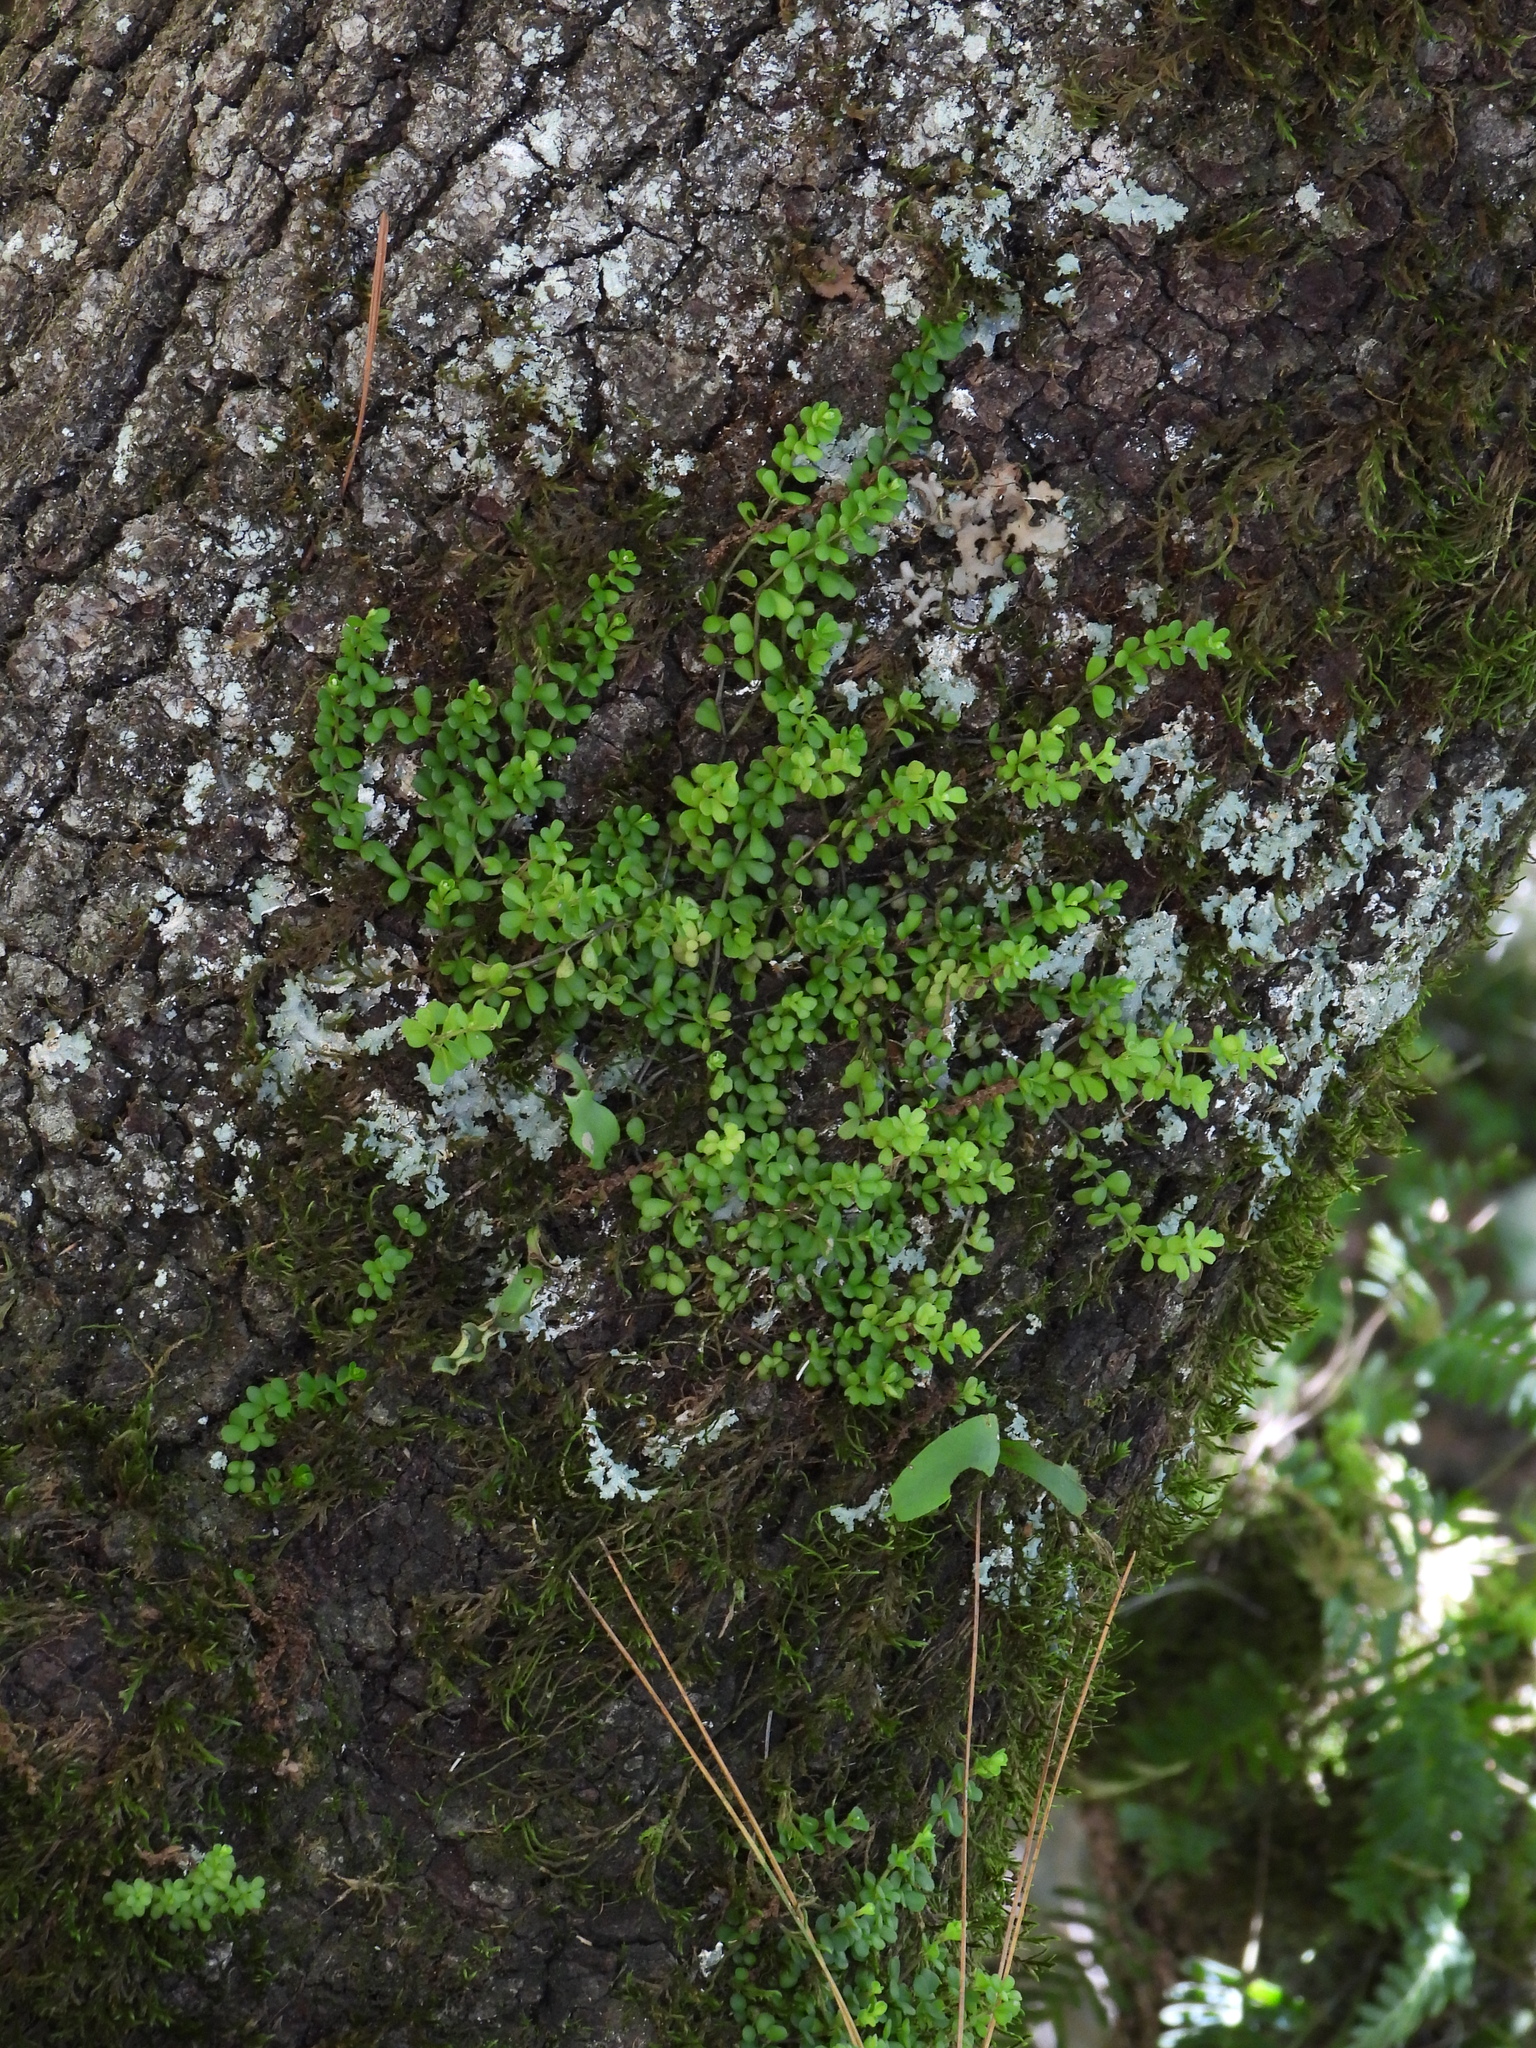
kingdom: Plantae
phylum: Tracheophyta
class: Magnoliopsida
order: Piperales
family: Piperaceae
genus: Peperomia
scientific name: Peperomia berlandieri
